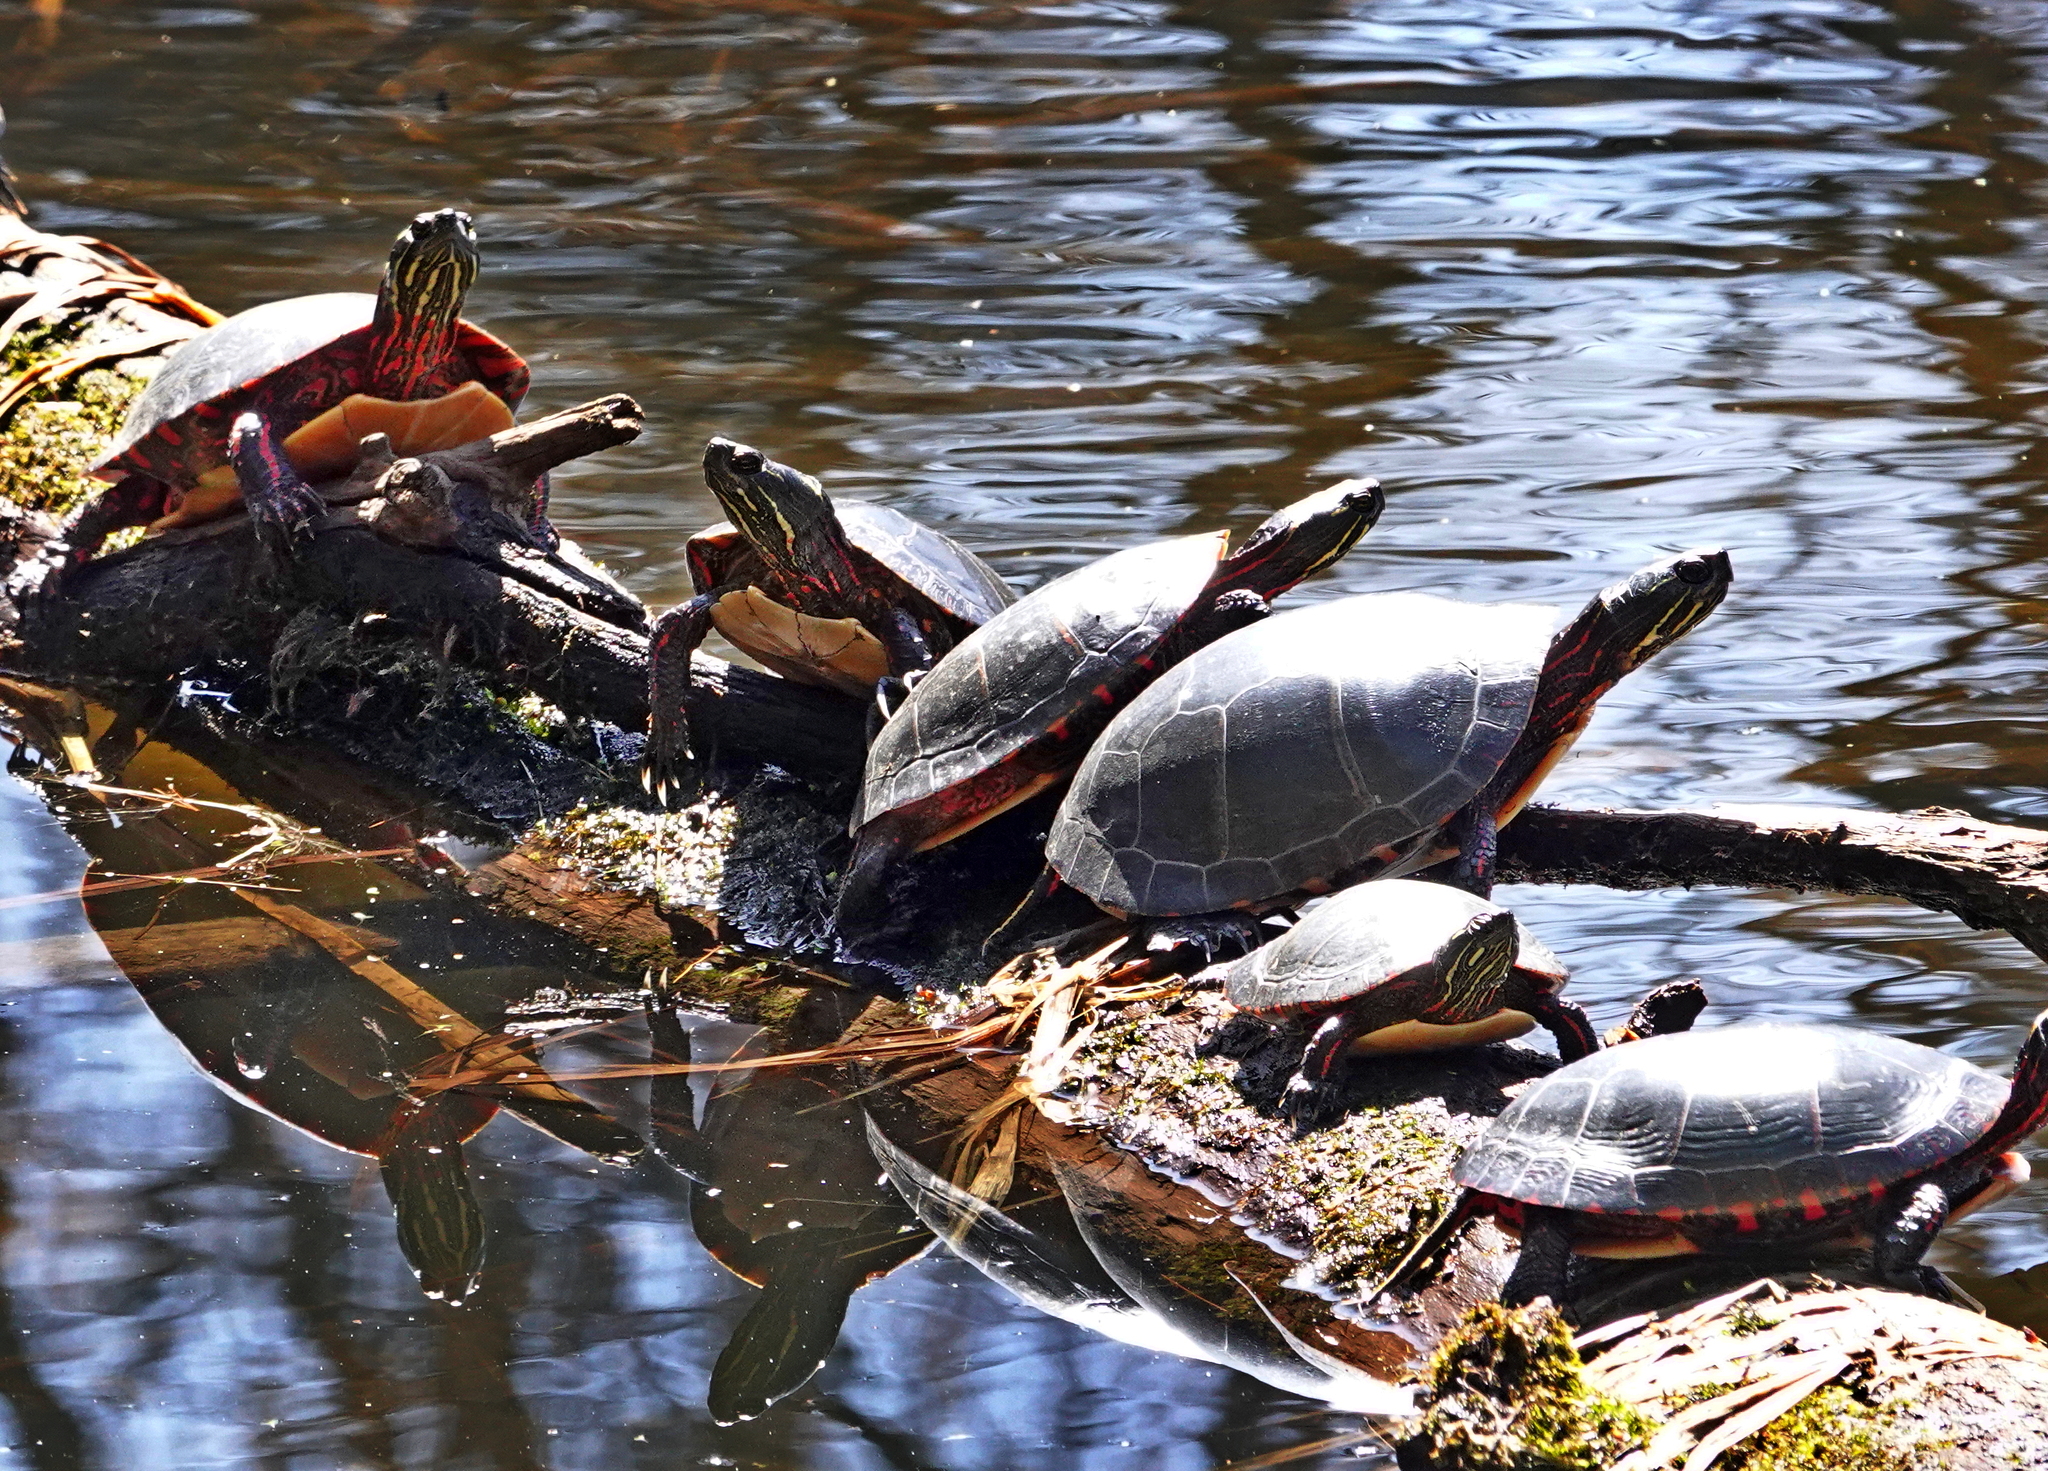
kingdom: Animalia
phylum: Chordata
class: Testudines
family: Emydidae
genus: Chrysemys
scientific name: Chrysemys picta
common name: Painted turtle
